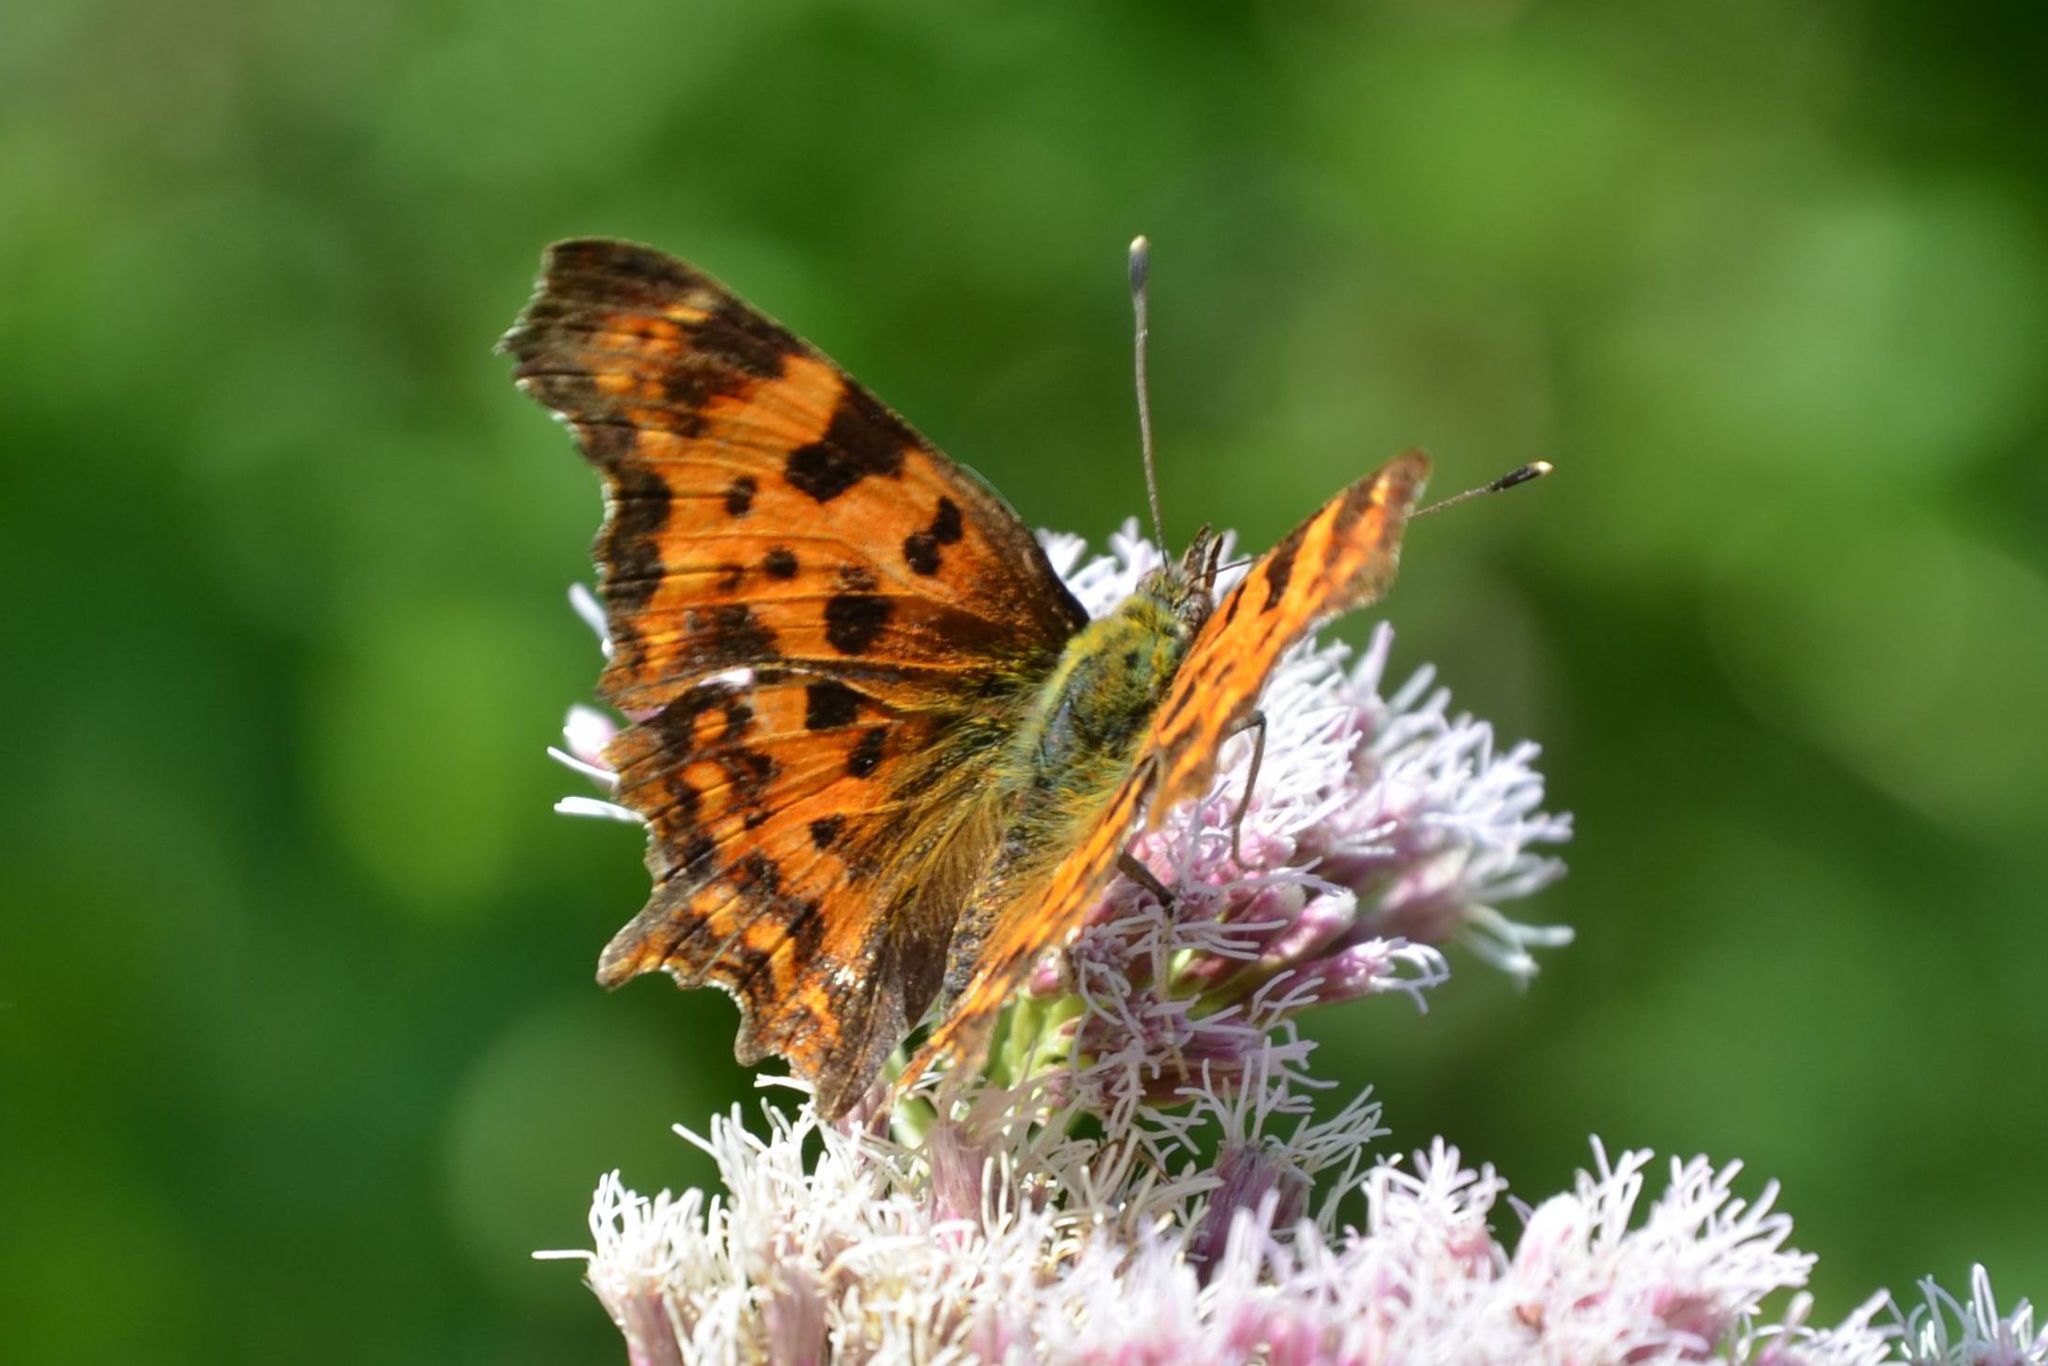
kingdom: Animalia
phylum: Arthropoda
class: Insecta
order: Lepidoptera
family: Nymphalidae
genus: Polygonia
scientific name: Polygonia c-album
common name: Comma
